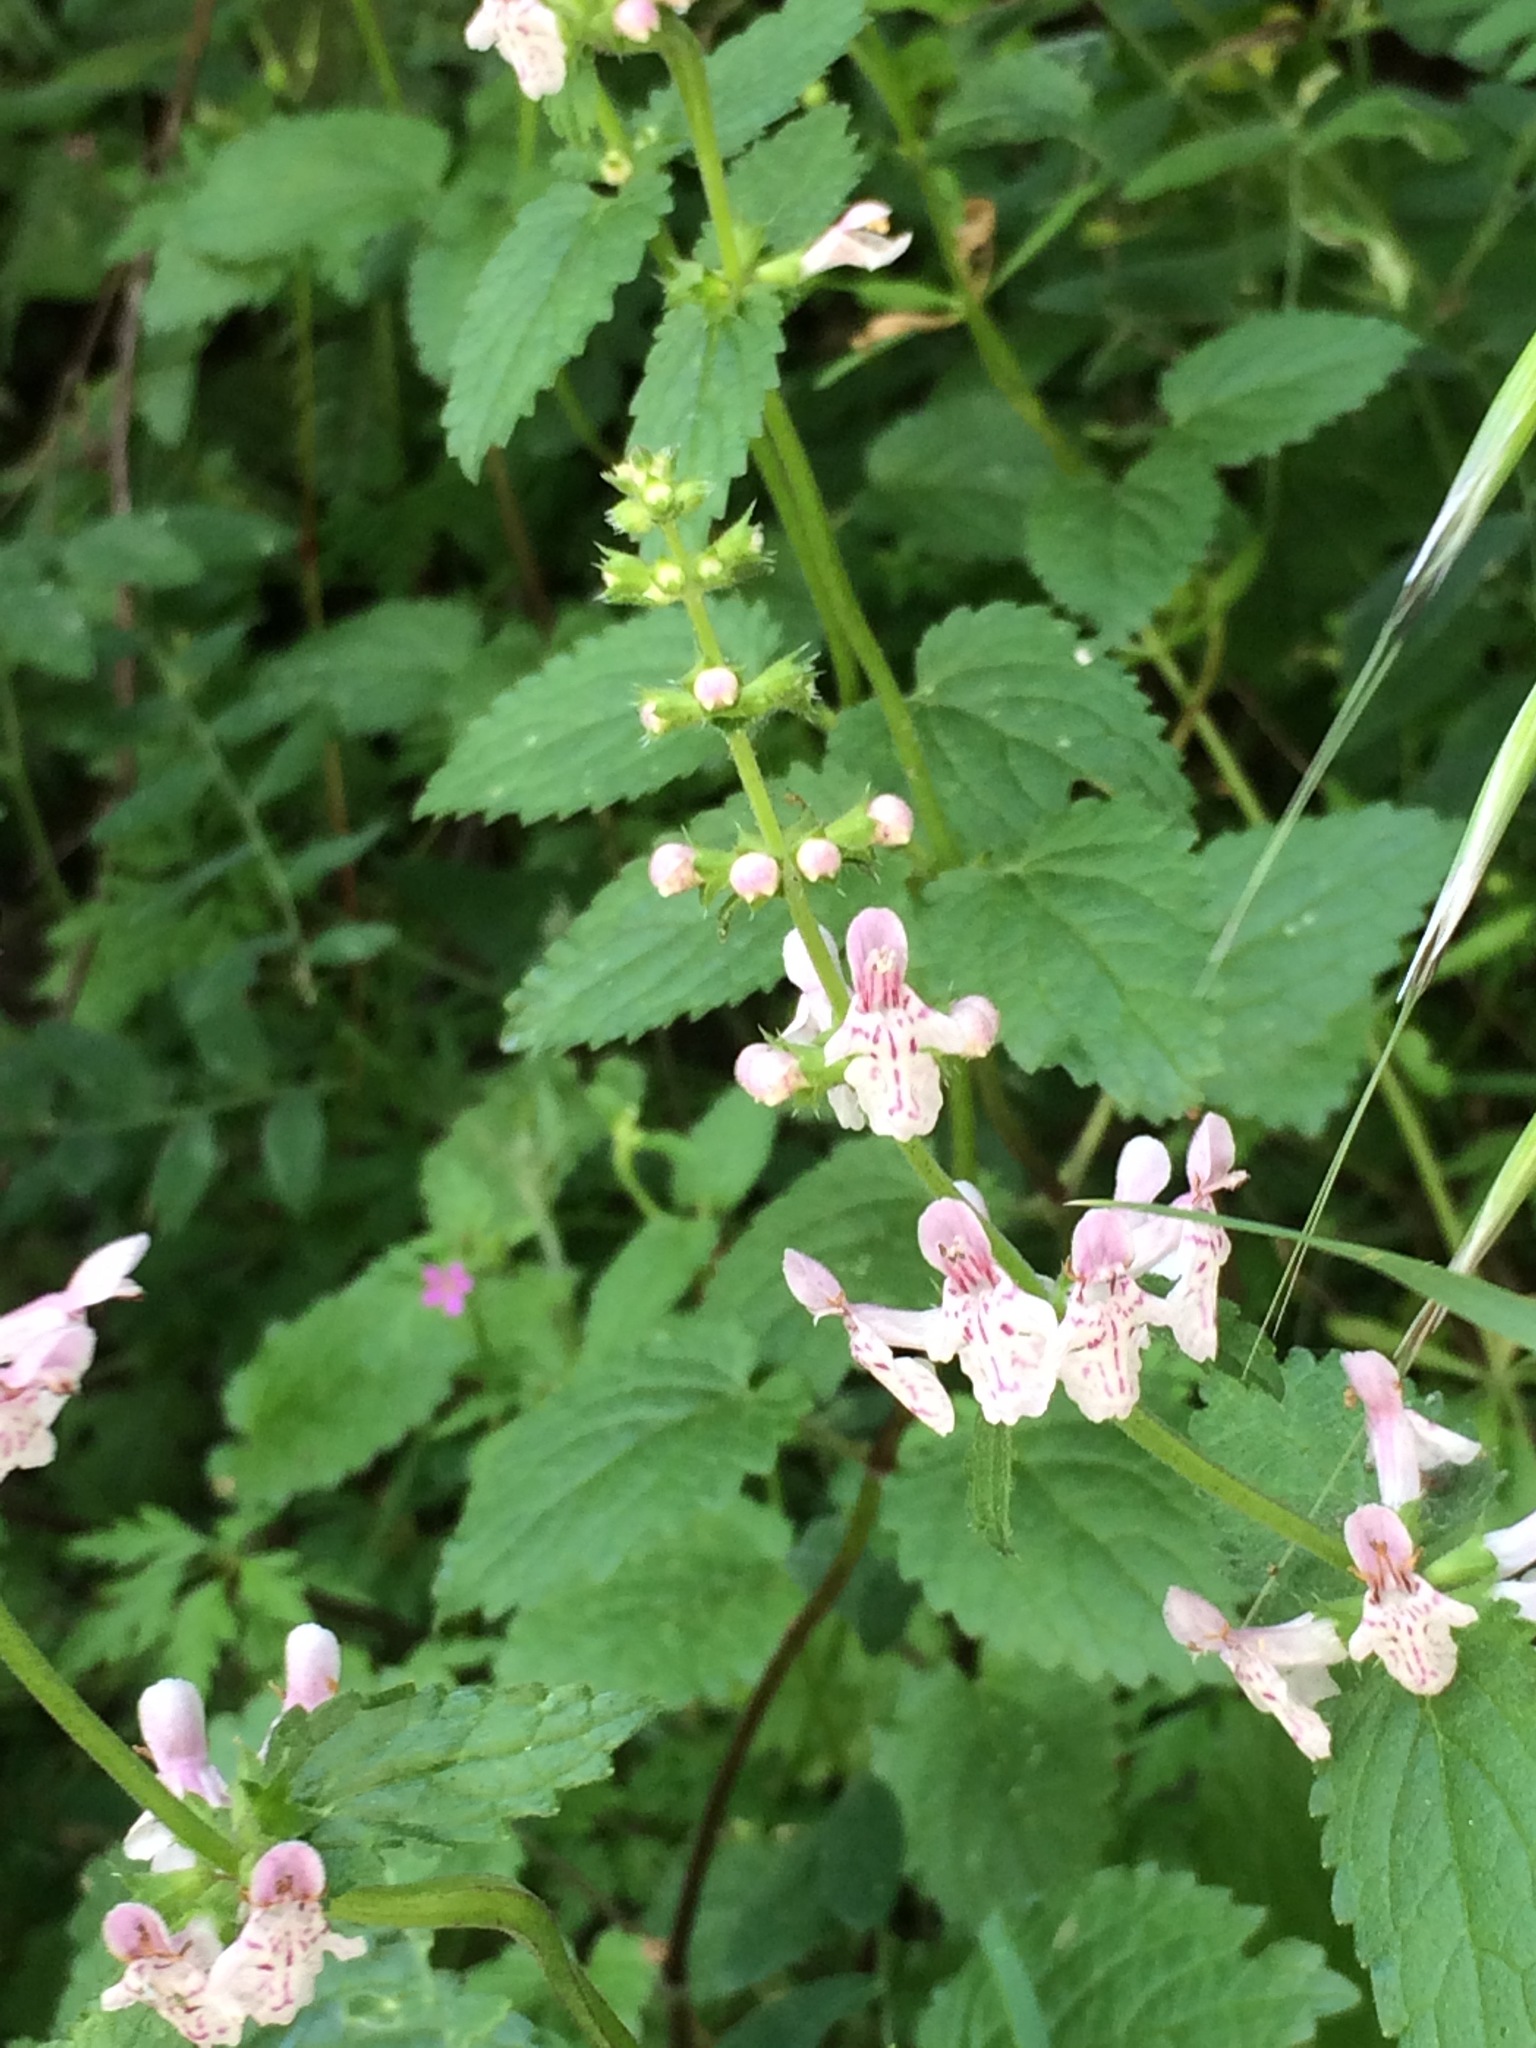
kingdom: Plantae
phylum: Tracheophyta
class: Magnoliopsida
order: Lamiales
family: Lamiaceae
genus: Stachys
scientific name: Stachys rigida
